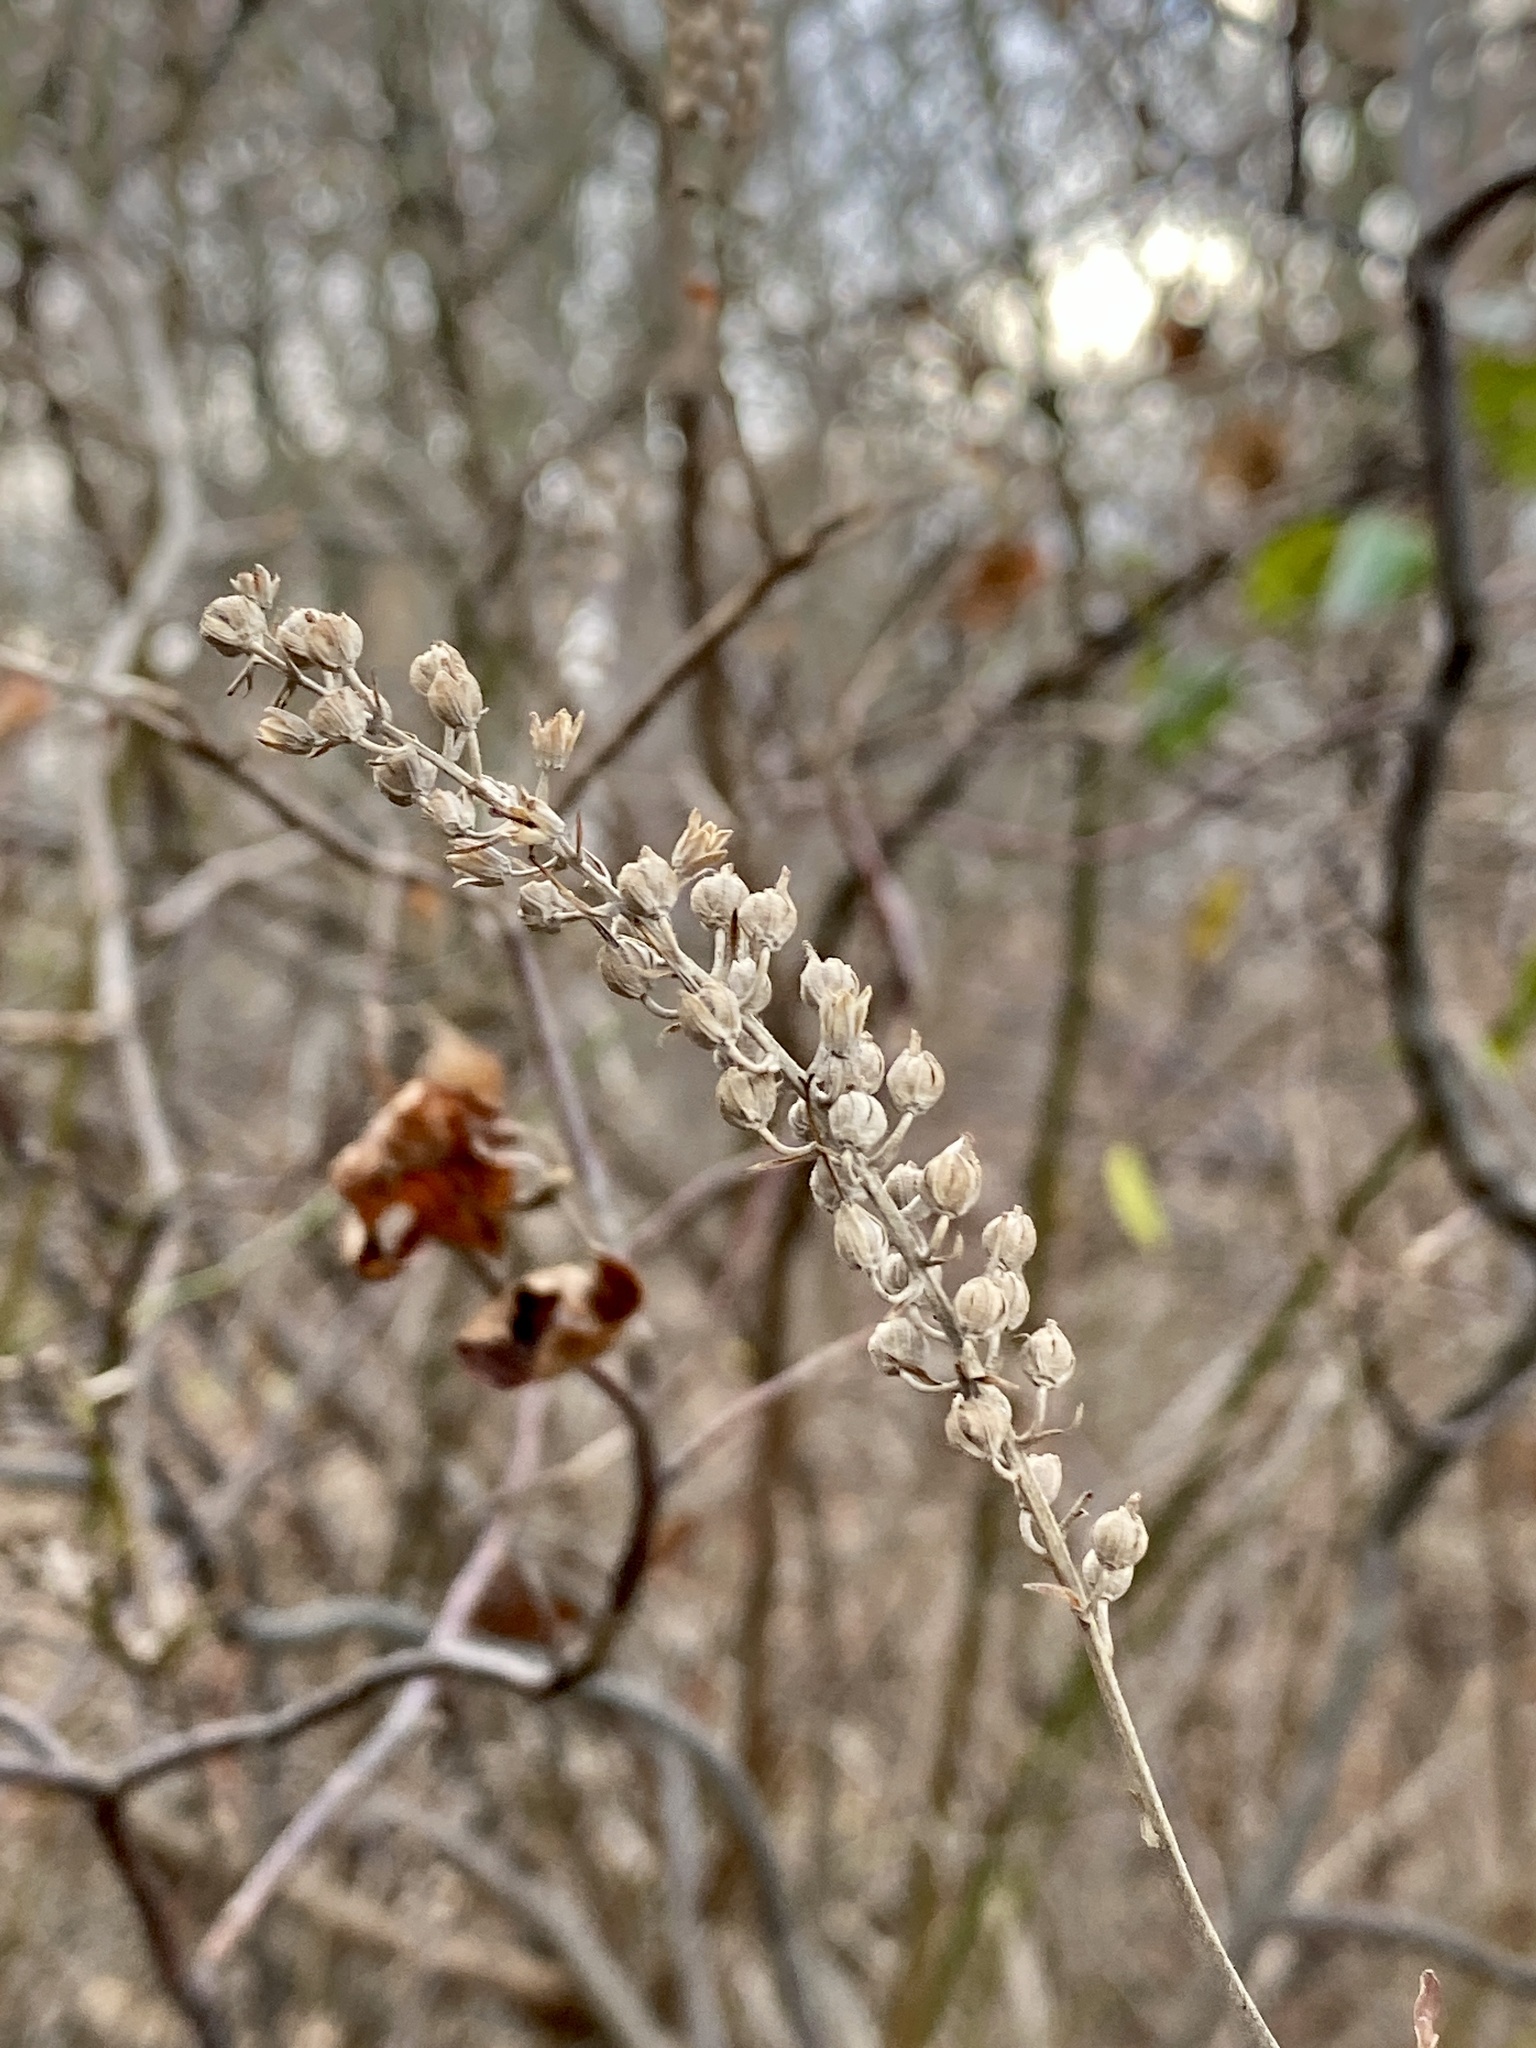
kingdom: Plantae
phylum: Tracheophyta
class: Magnoliopsida
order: Ericales
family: Clethraceae
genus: Clethra
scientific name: Clethra alnifolia
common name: Sweet pepperbush
